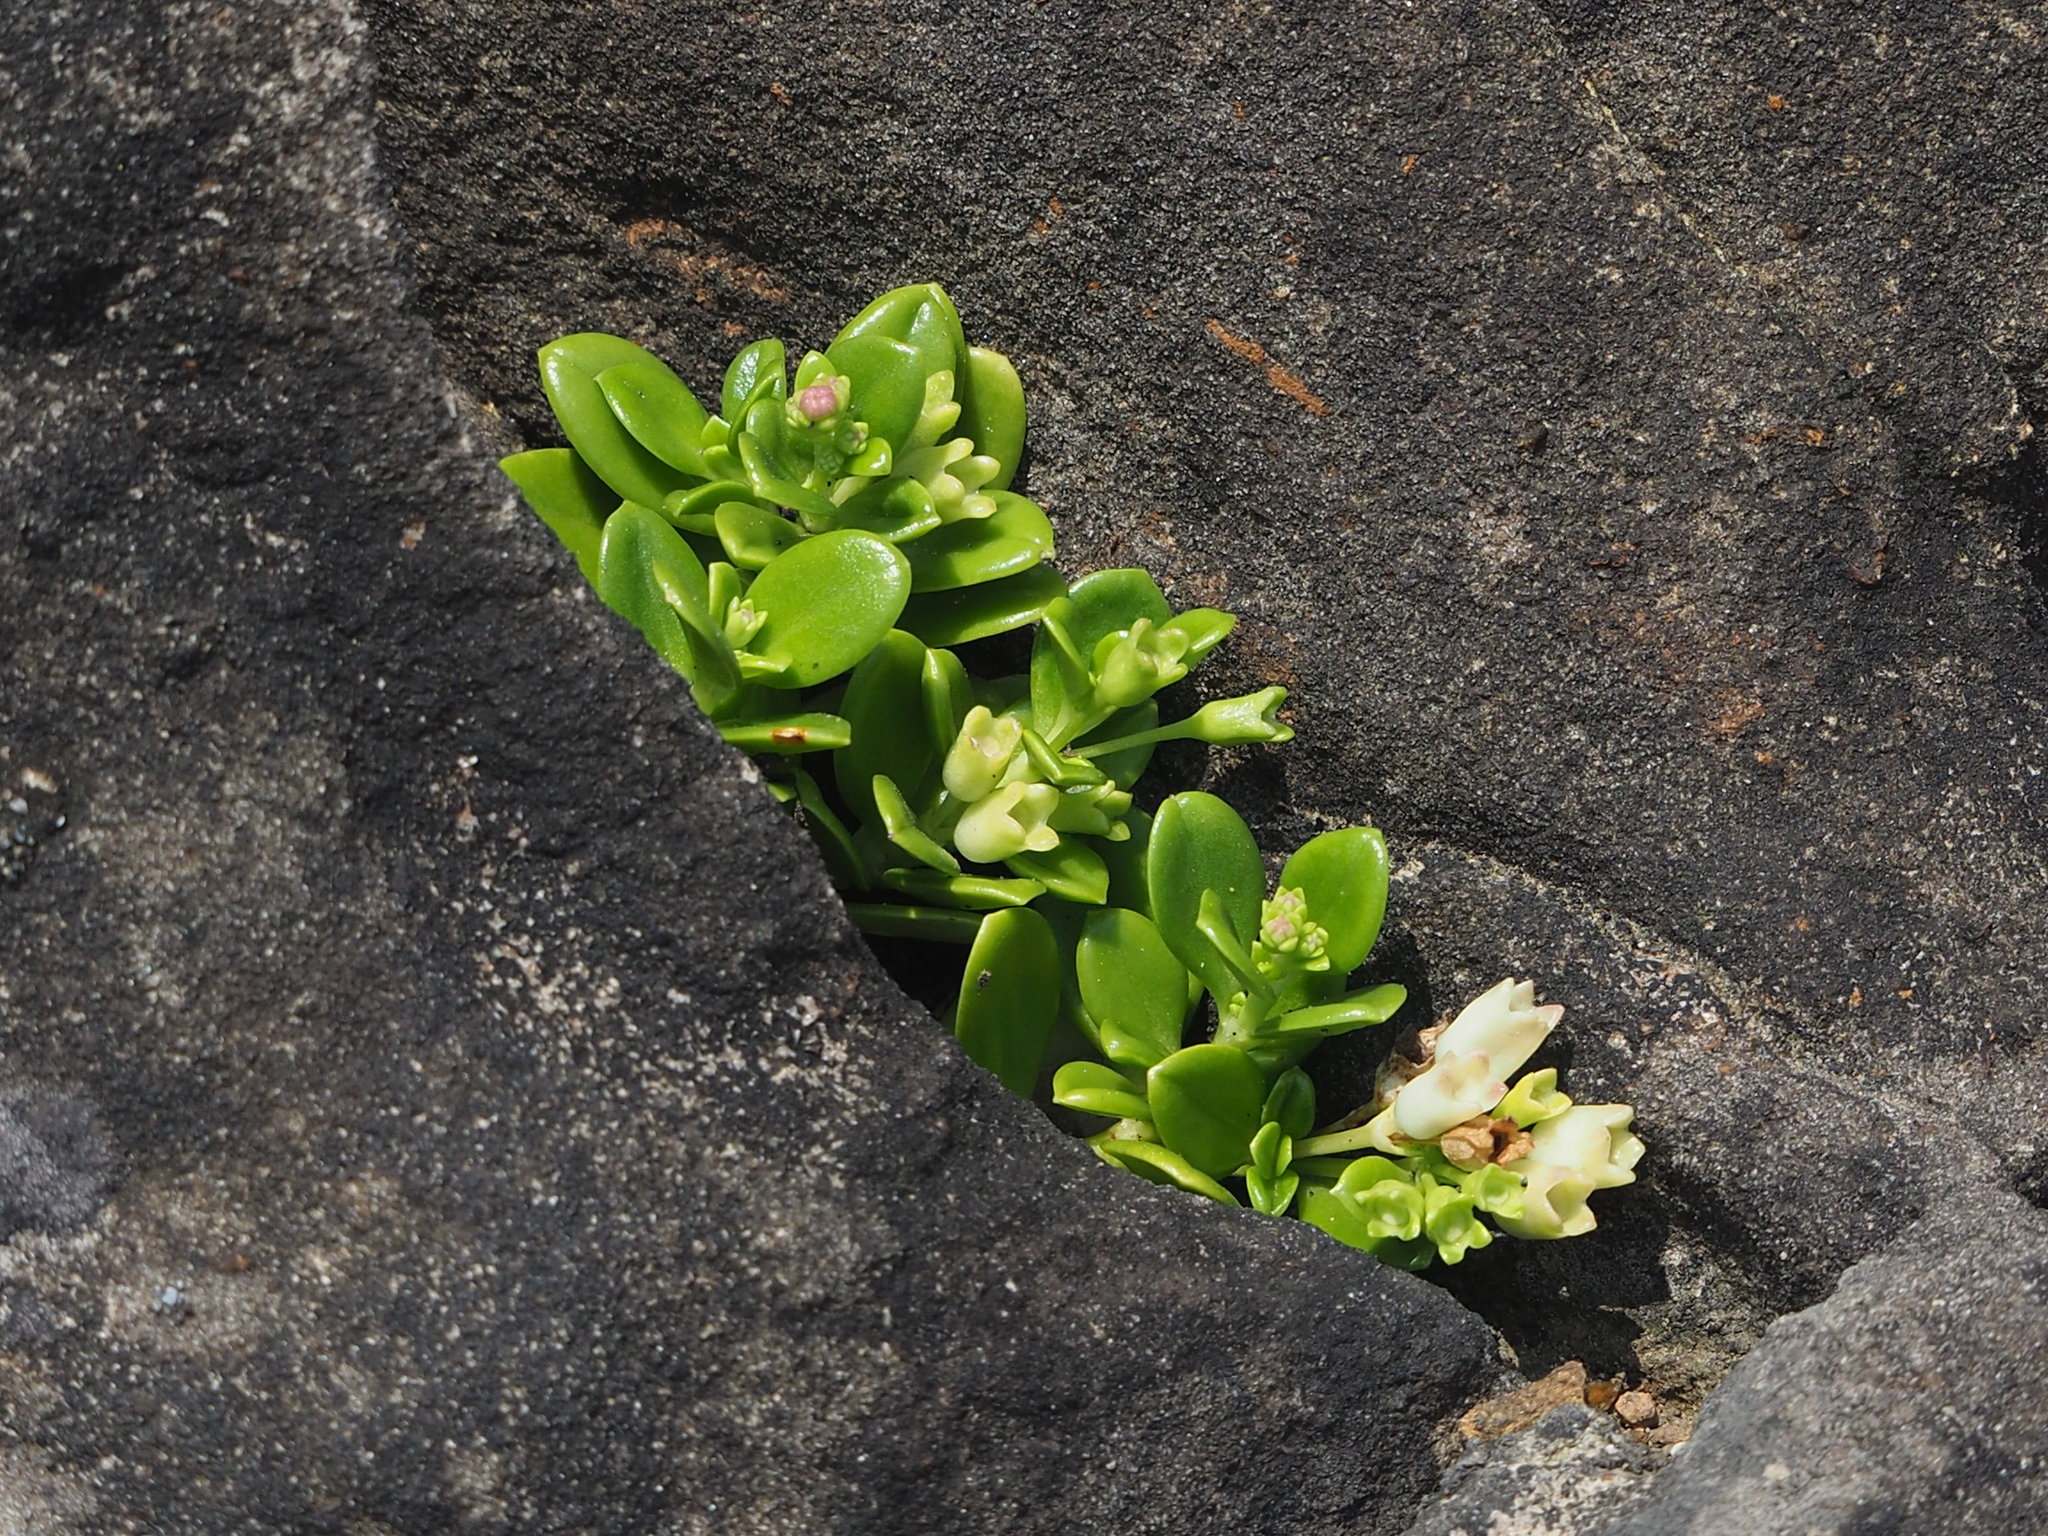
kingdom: Plantae
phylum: Tracheophyta
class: Magnoliopsida
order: Gentianales
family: Rubiaceae
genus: Leptopetalum
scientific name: Leptopetalum strigulosum
